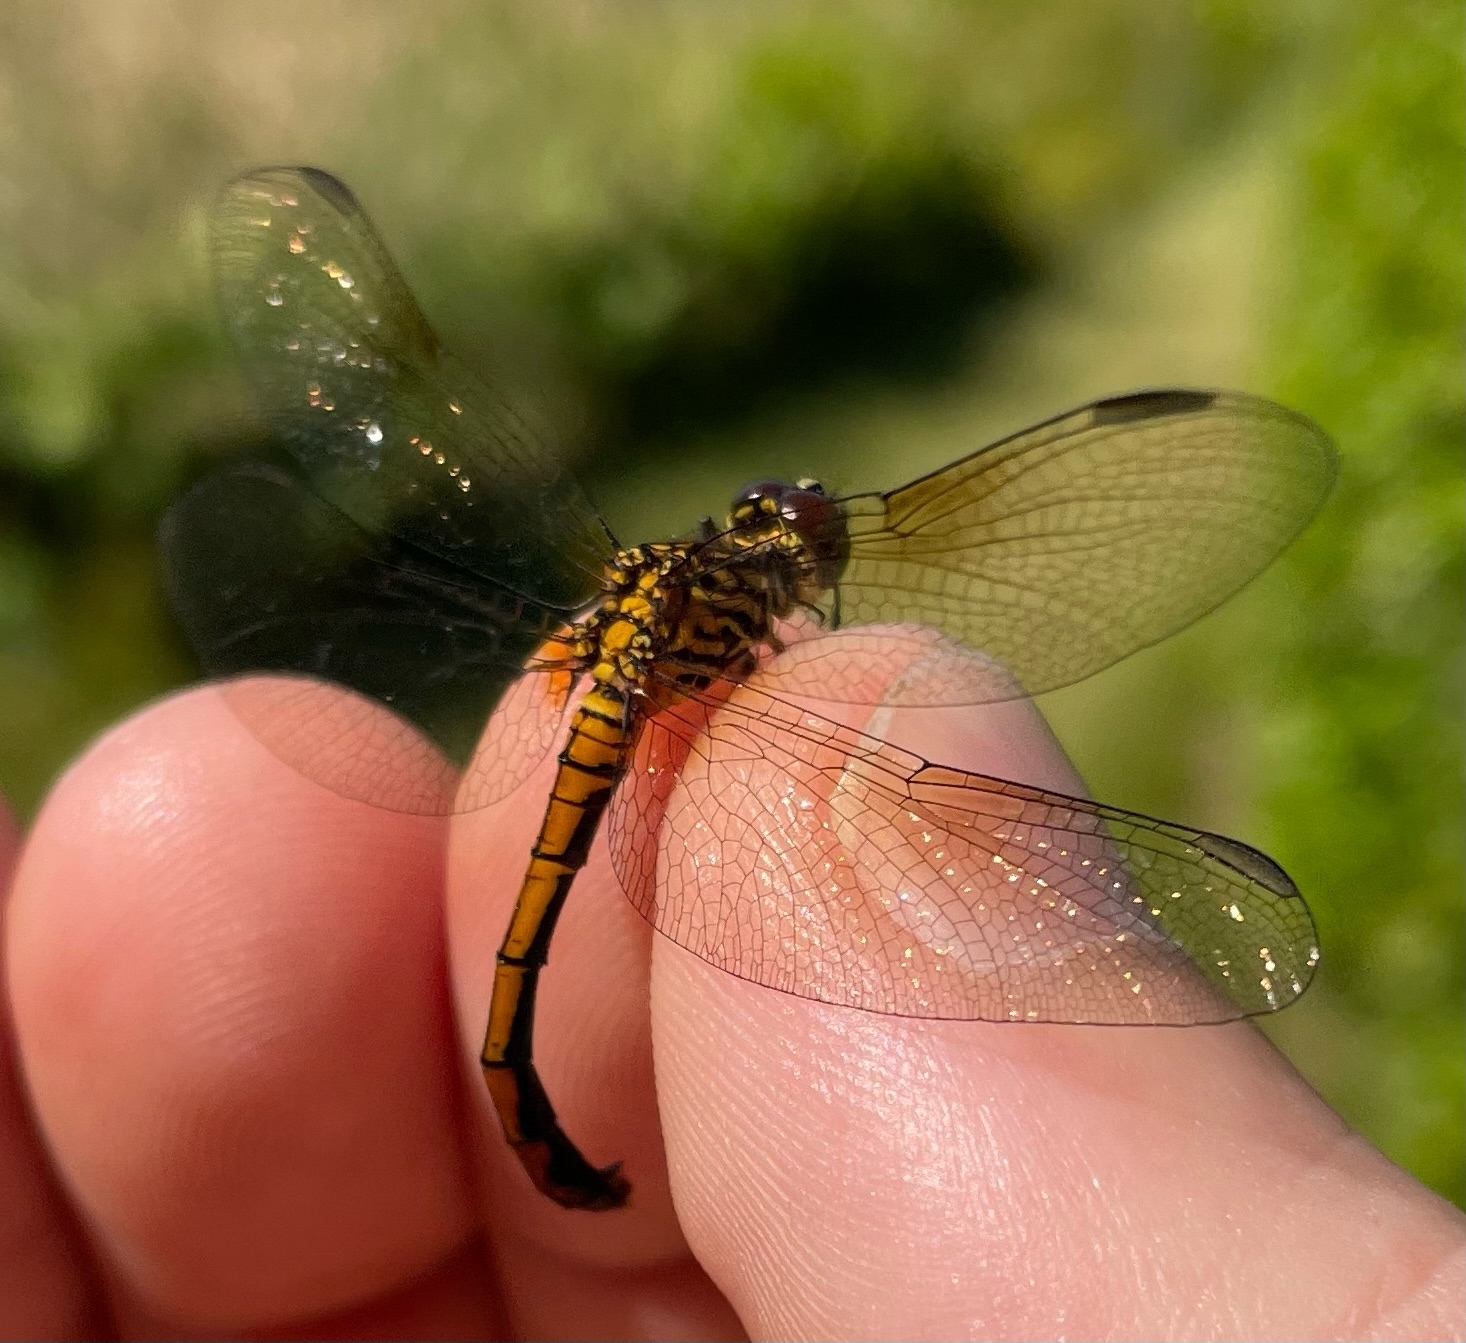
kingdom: Animalia
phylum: Arthropoda
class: Insecta
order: Odonata
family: Libellulidae
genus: Erythrodiplax
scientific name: Erythrodiplax berenice
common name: Seaside dragonlet
